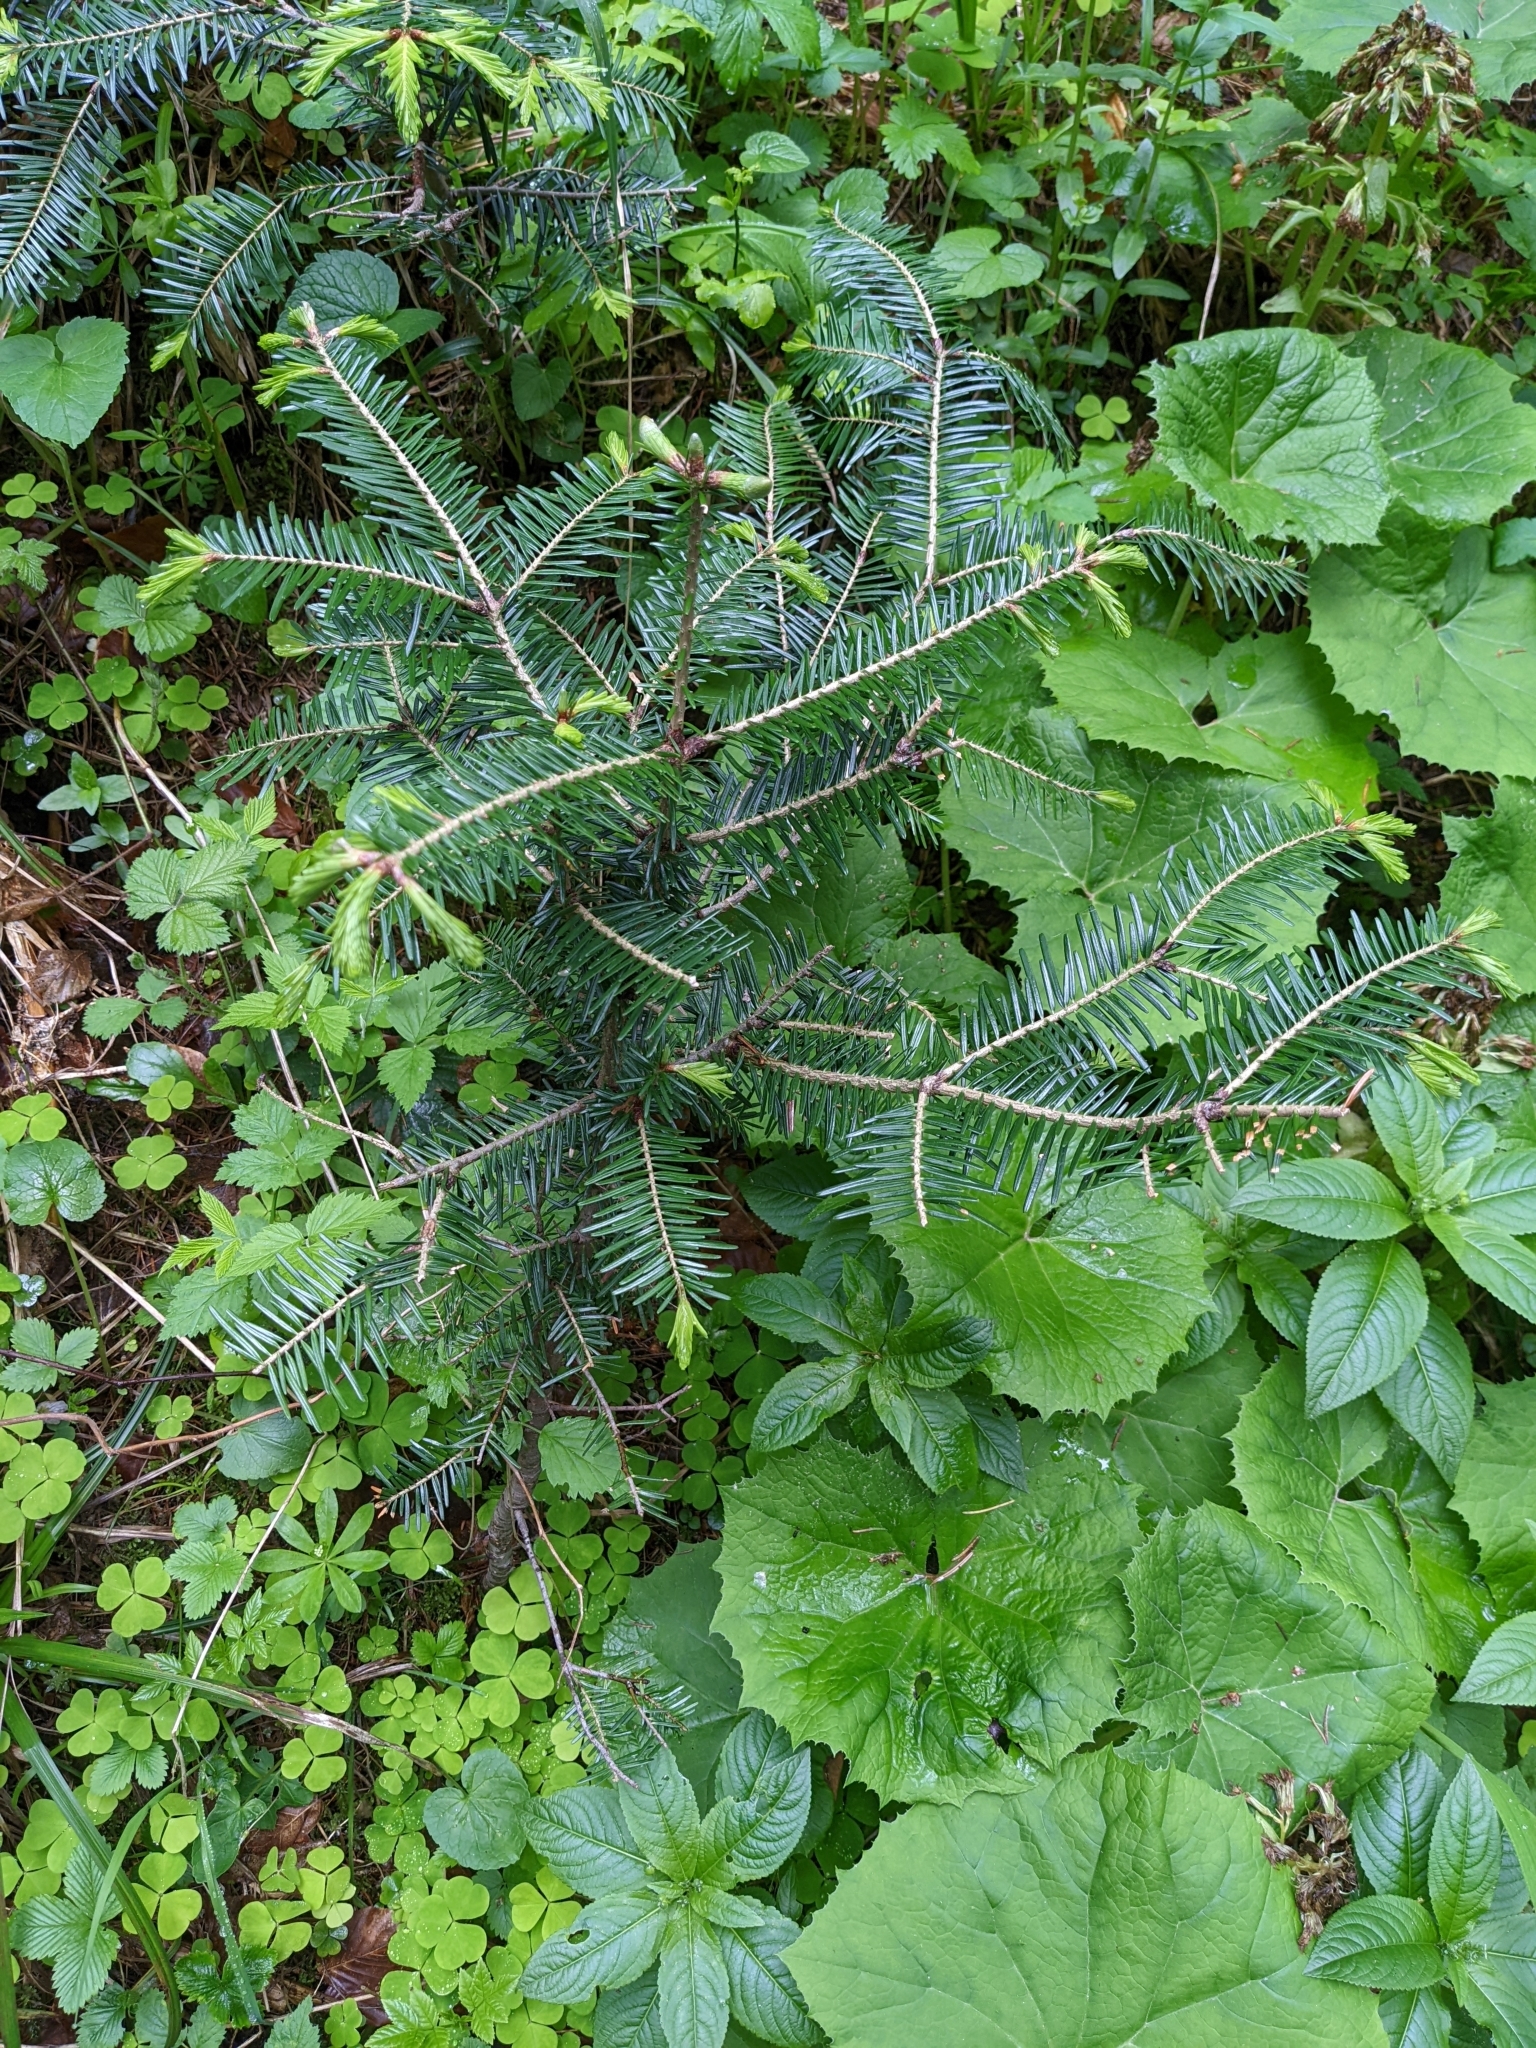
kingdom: Plantae
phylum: Tracheophyta
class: Pinopsida
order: Pinales
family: Pinaceae
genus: Abies
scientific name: Abies alba
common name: Silver fir
